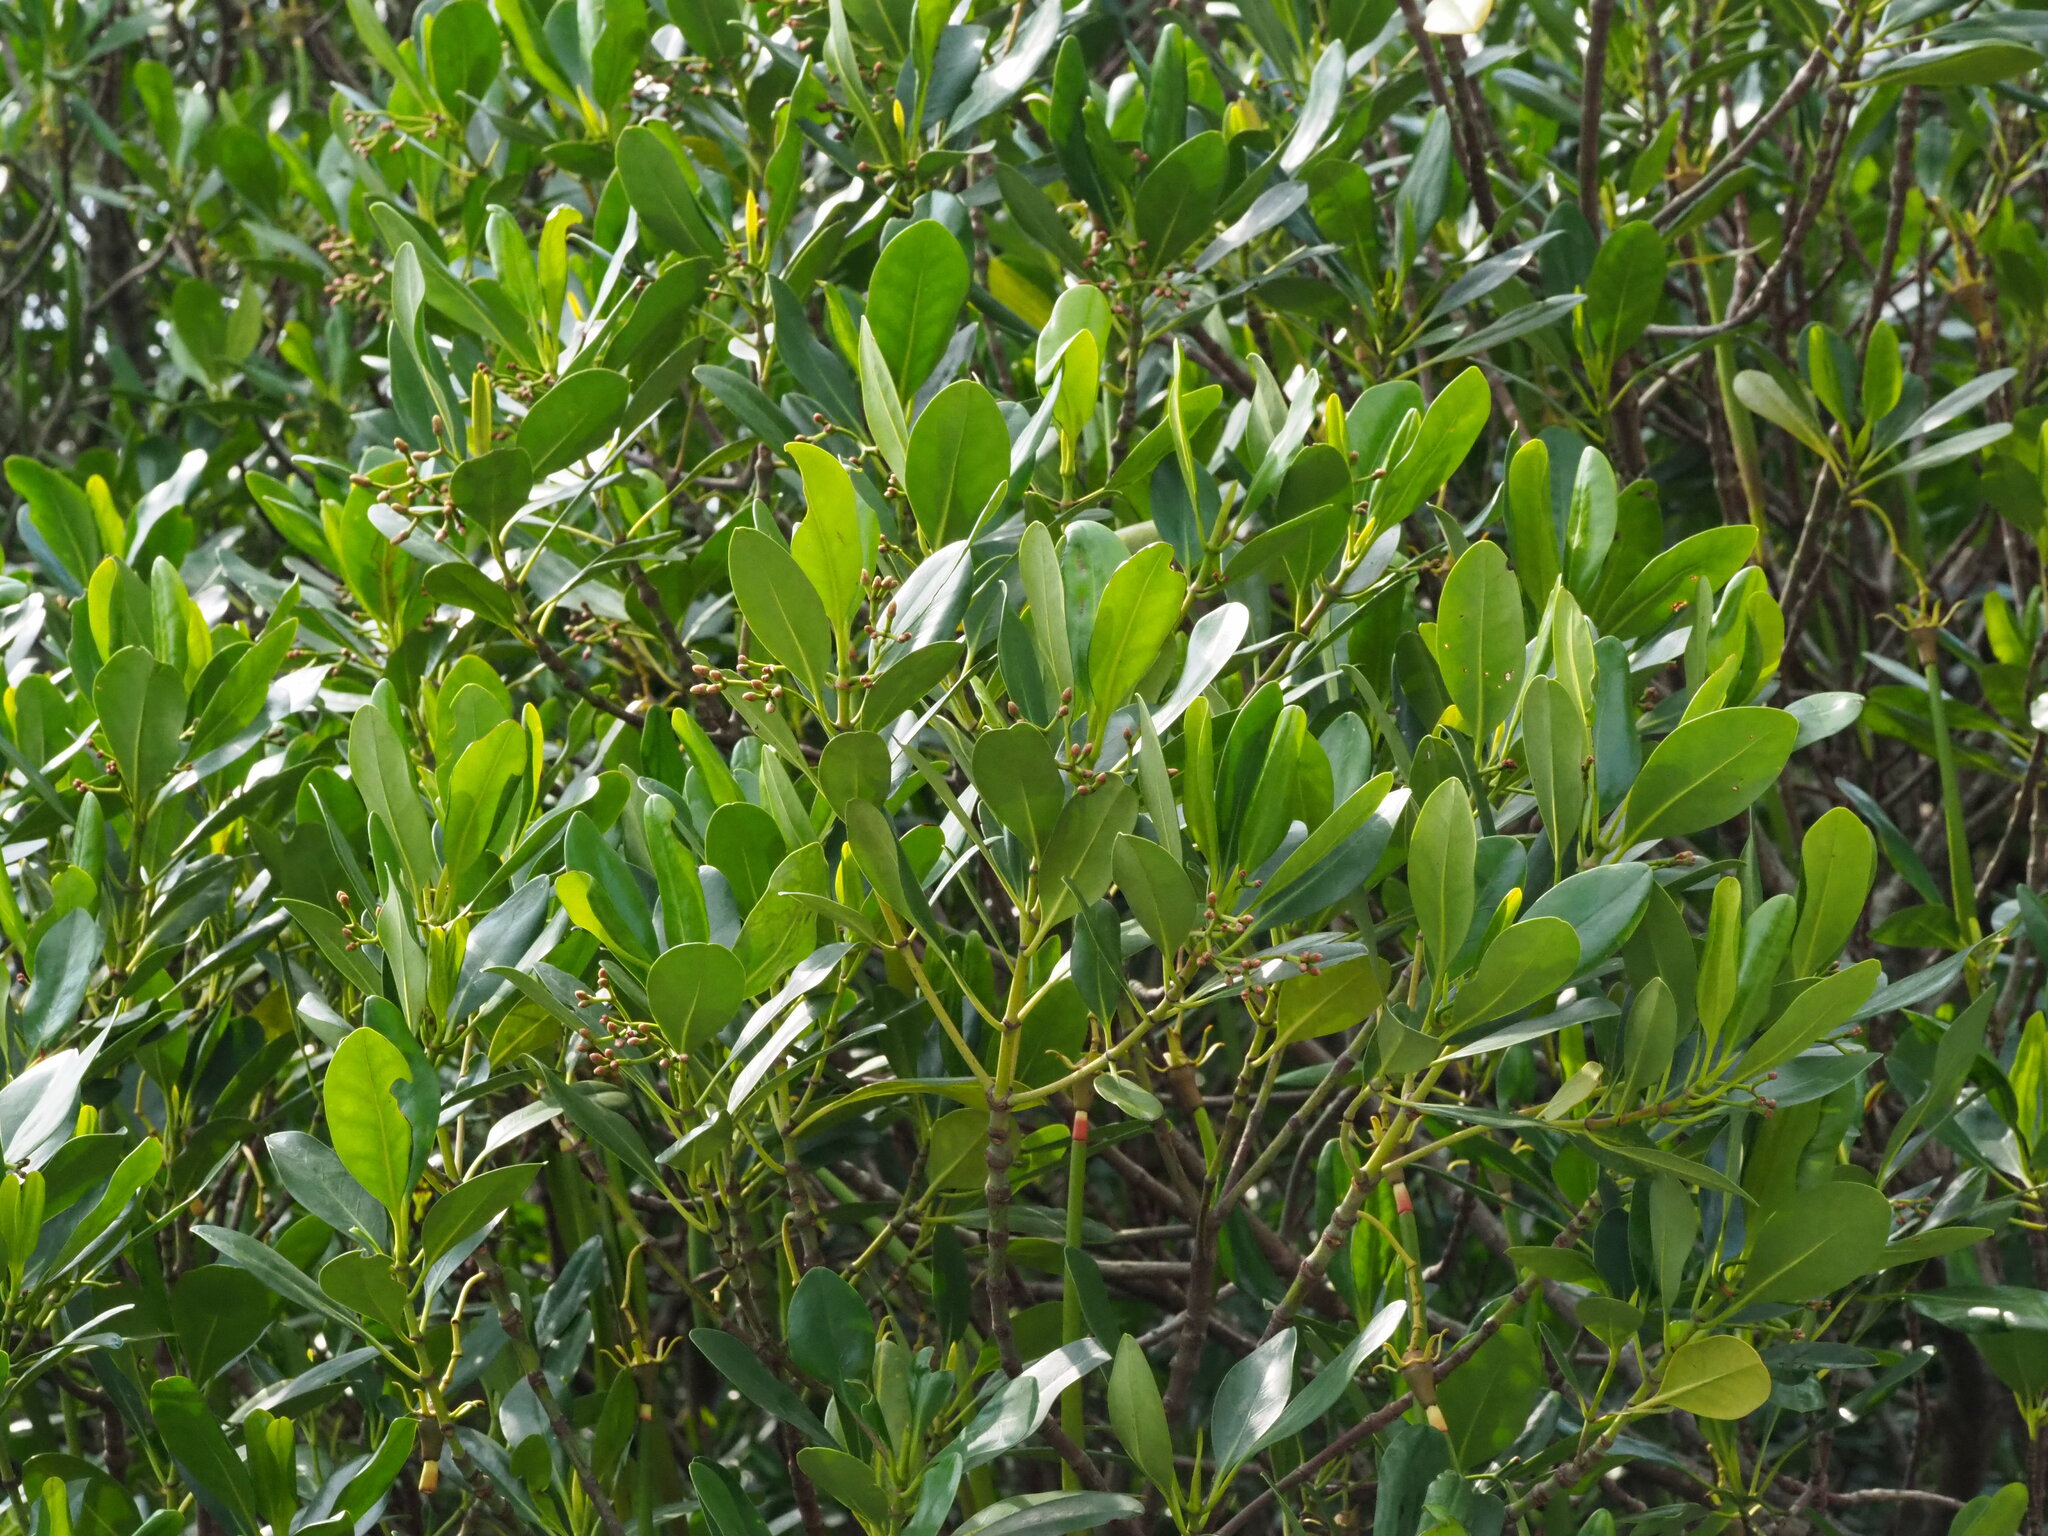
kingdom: Plantae
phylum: Tracheophyta
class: Magnoliopsida
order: Malpighiales
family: Rhizophoraceae
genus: Kandelia
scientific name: Kandelia obovata
